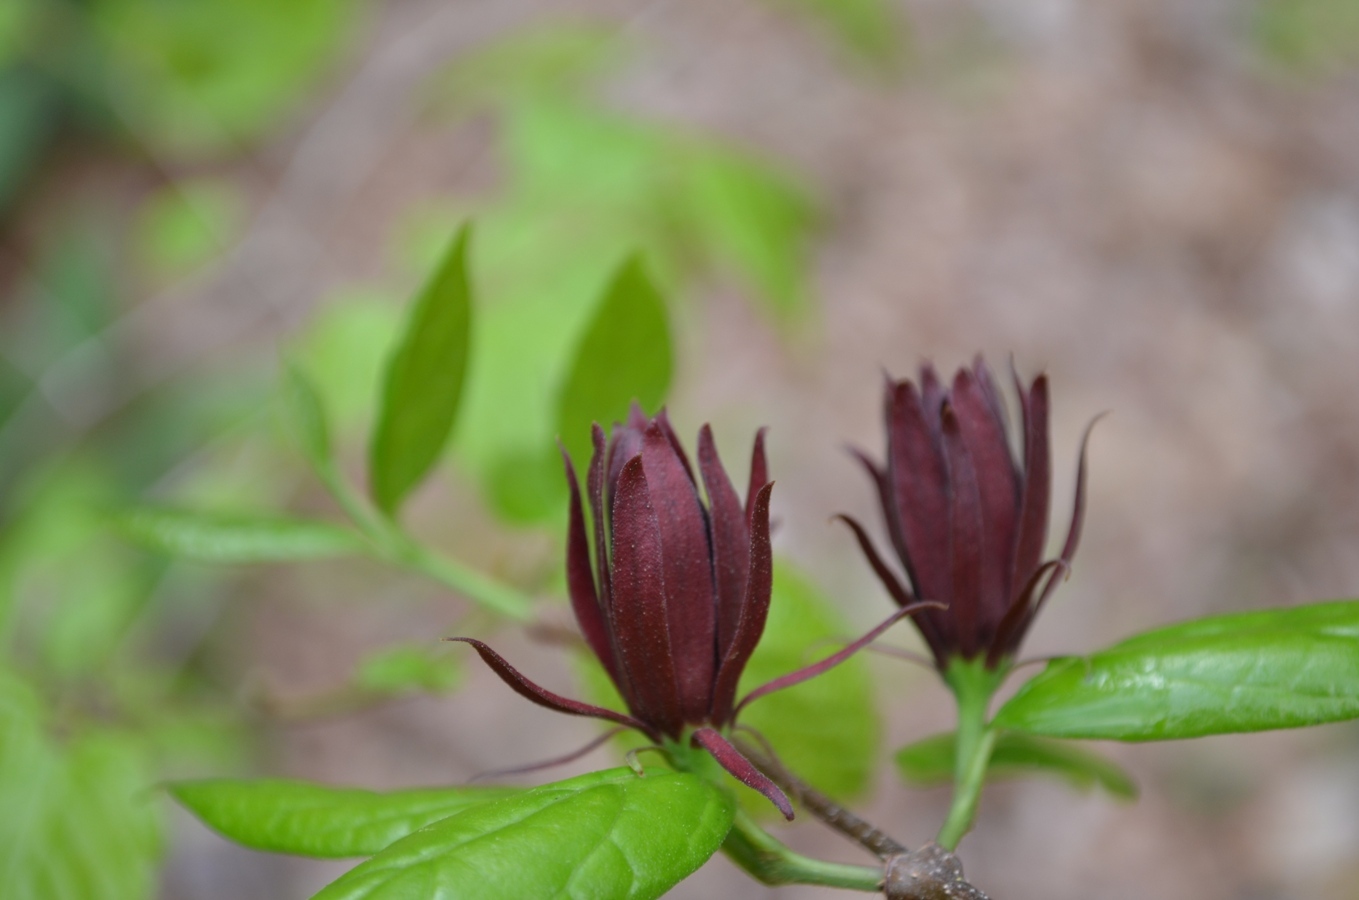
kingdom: Plantae
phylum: Tracheophyta
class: Magnoliopsida
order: Laurales
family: Calycanthaceae
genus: Calycanthus
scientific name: Calycanthus floridus
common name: Carolina-allspice
